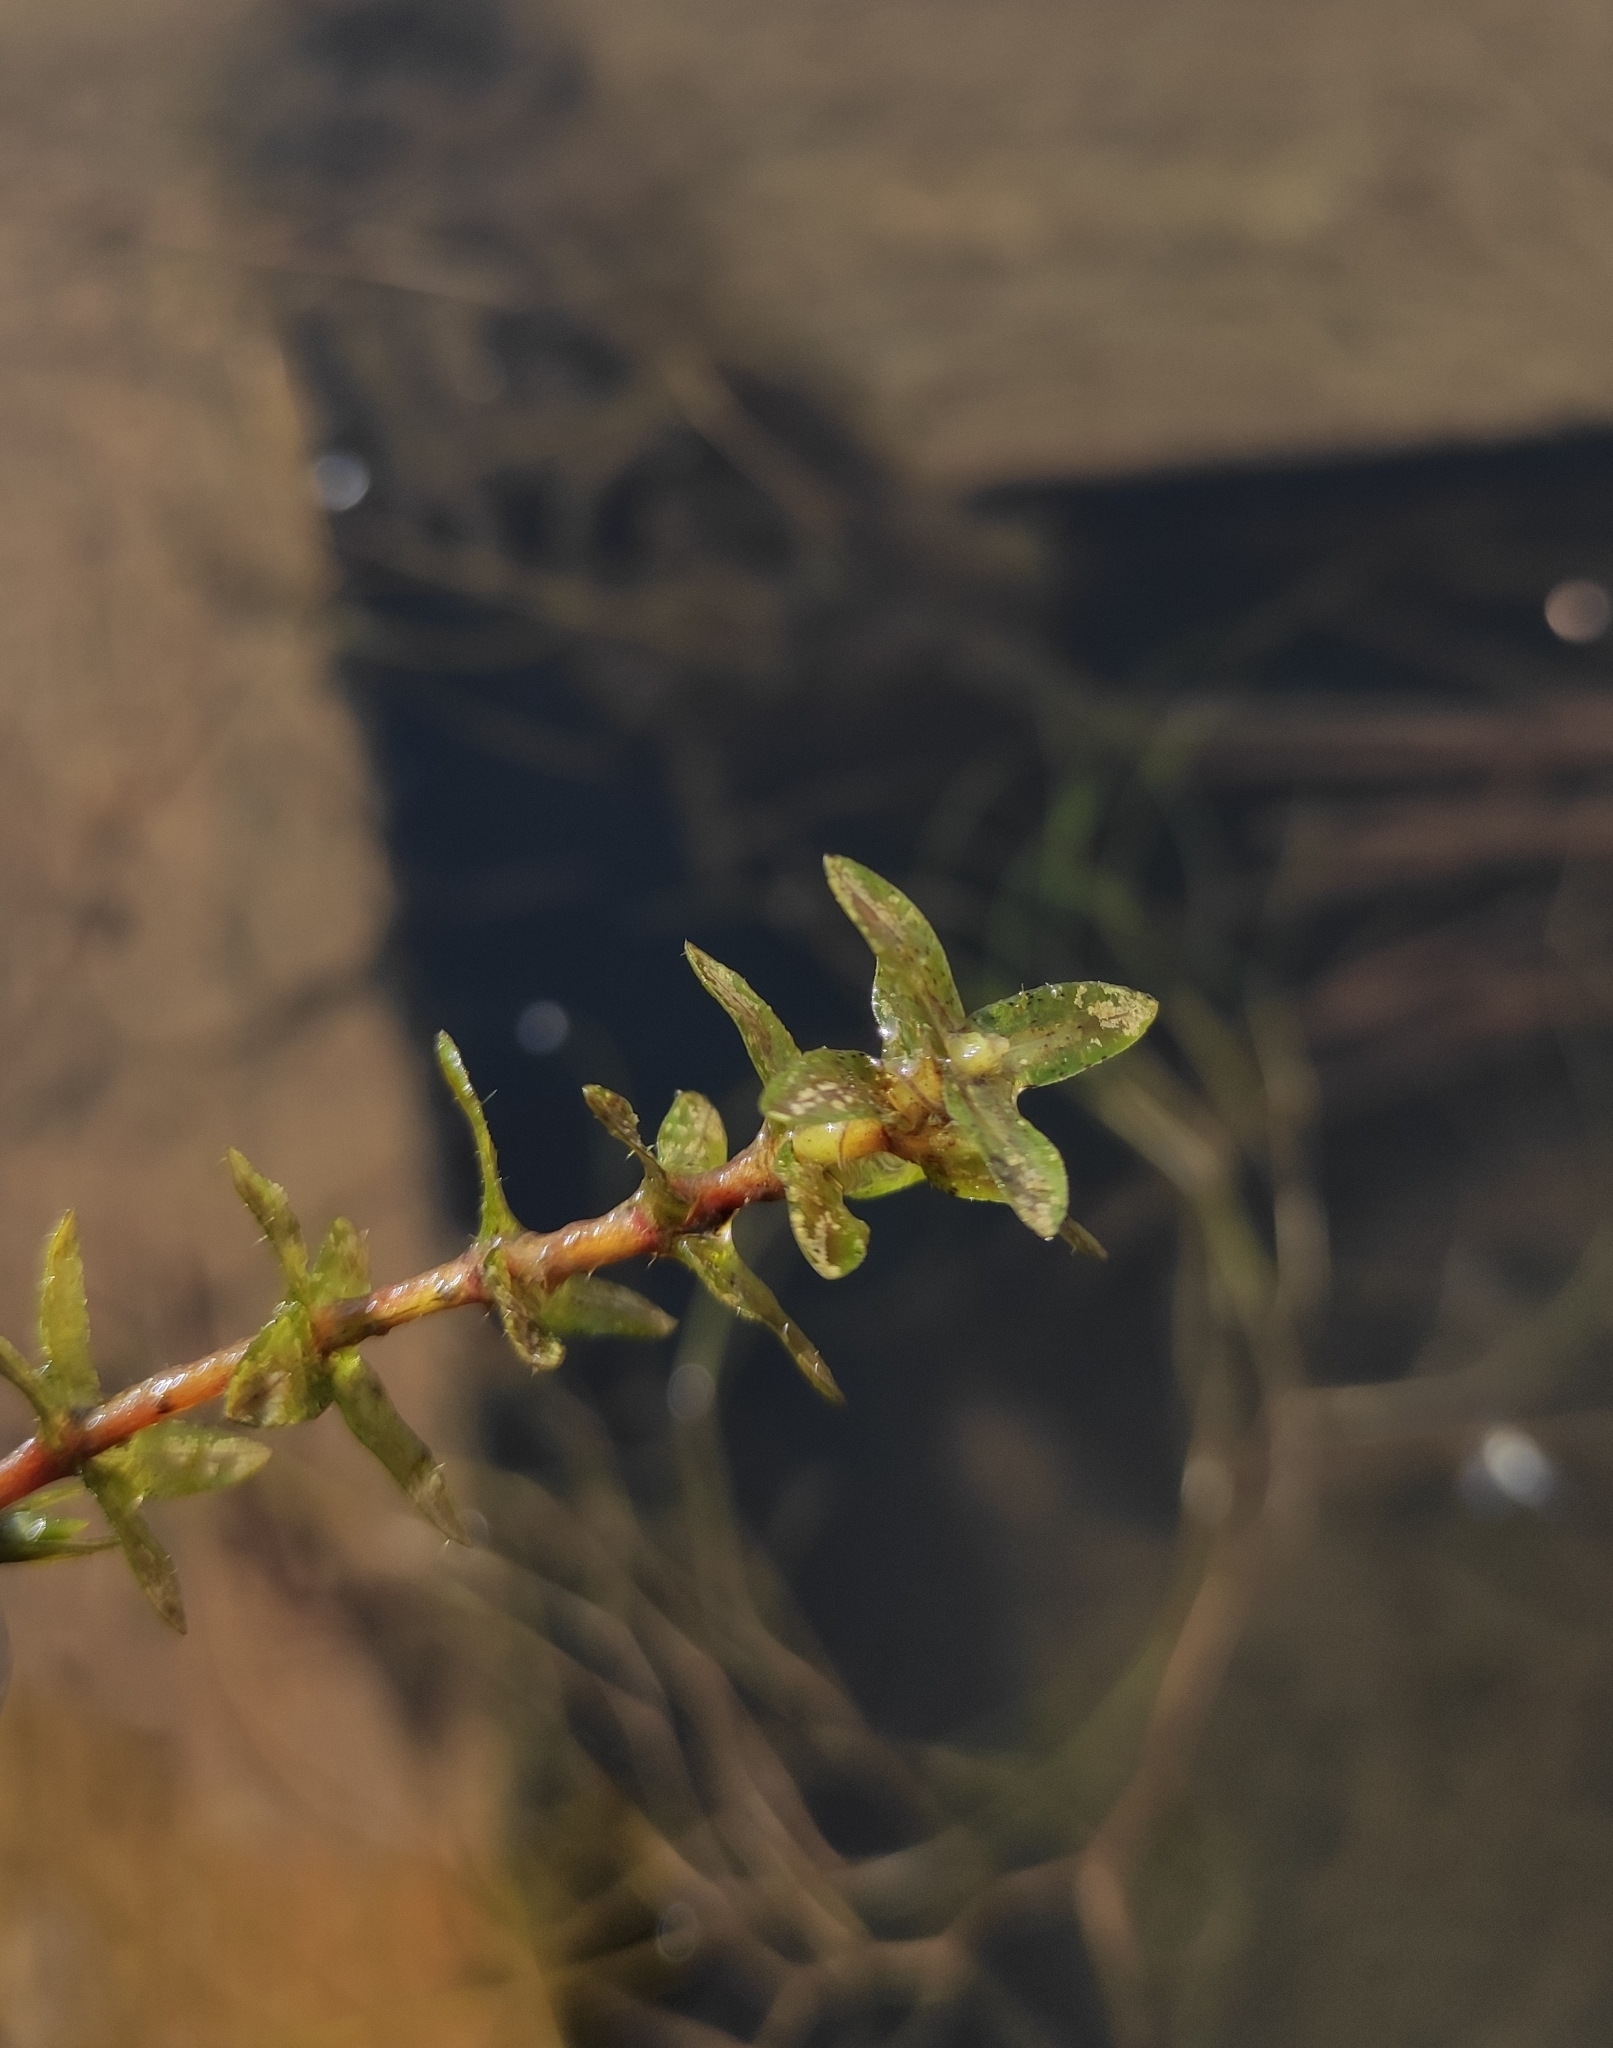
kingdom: Plantae
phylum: Tracheophyta
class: Liliopsida
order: Alismatales
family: Hydrocharitaceae
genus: Elodea
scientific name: Elodea canadensis
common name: Canadian waterweed
